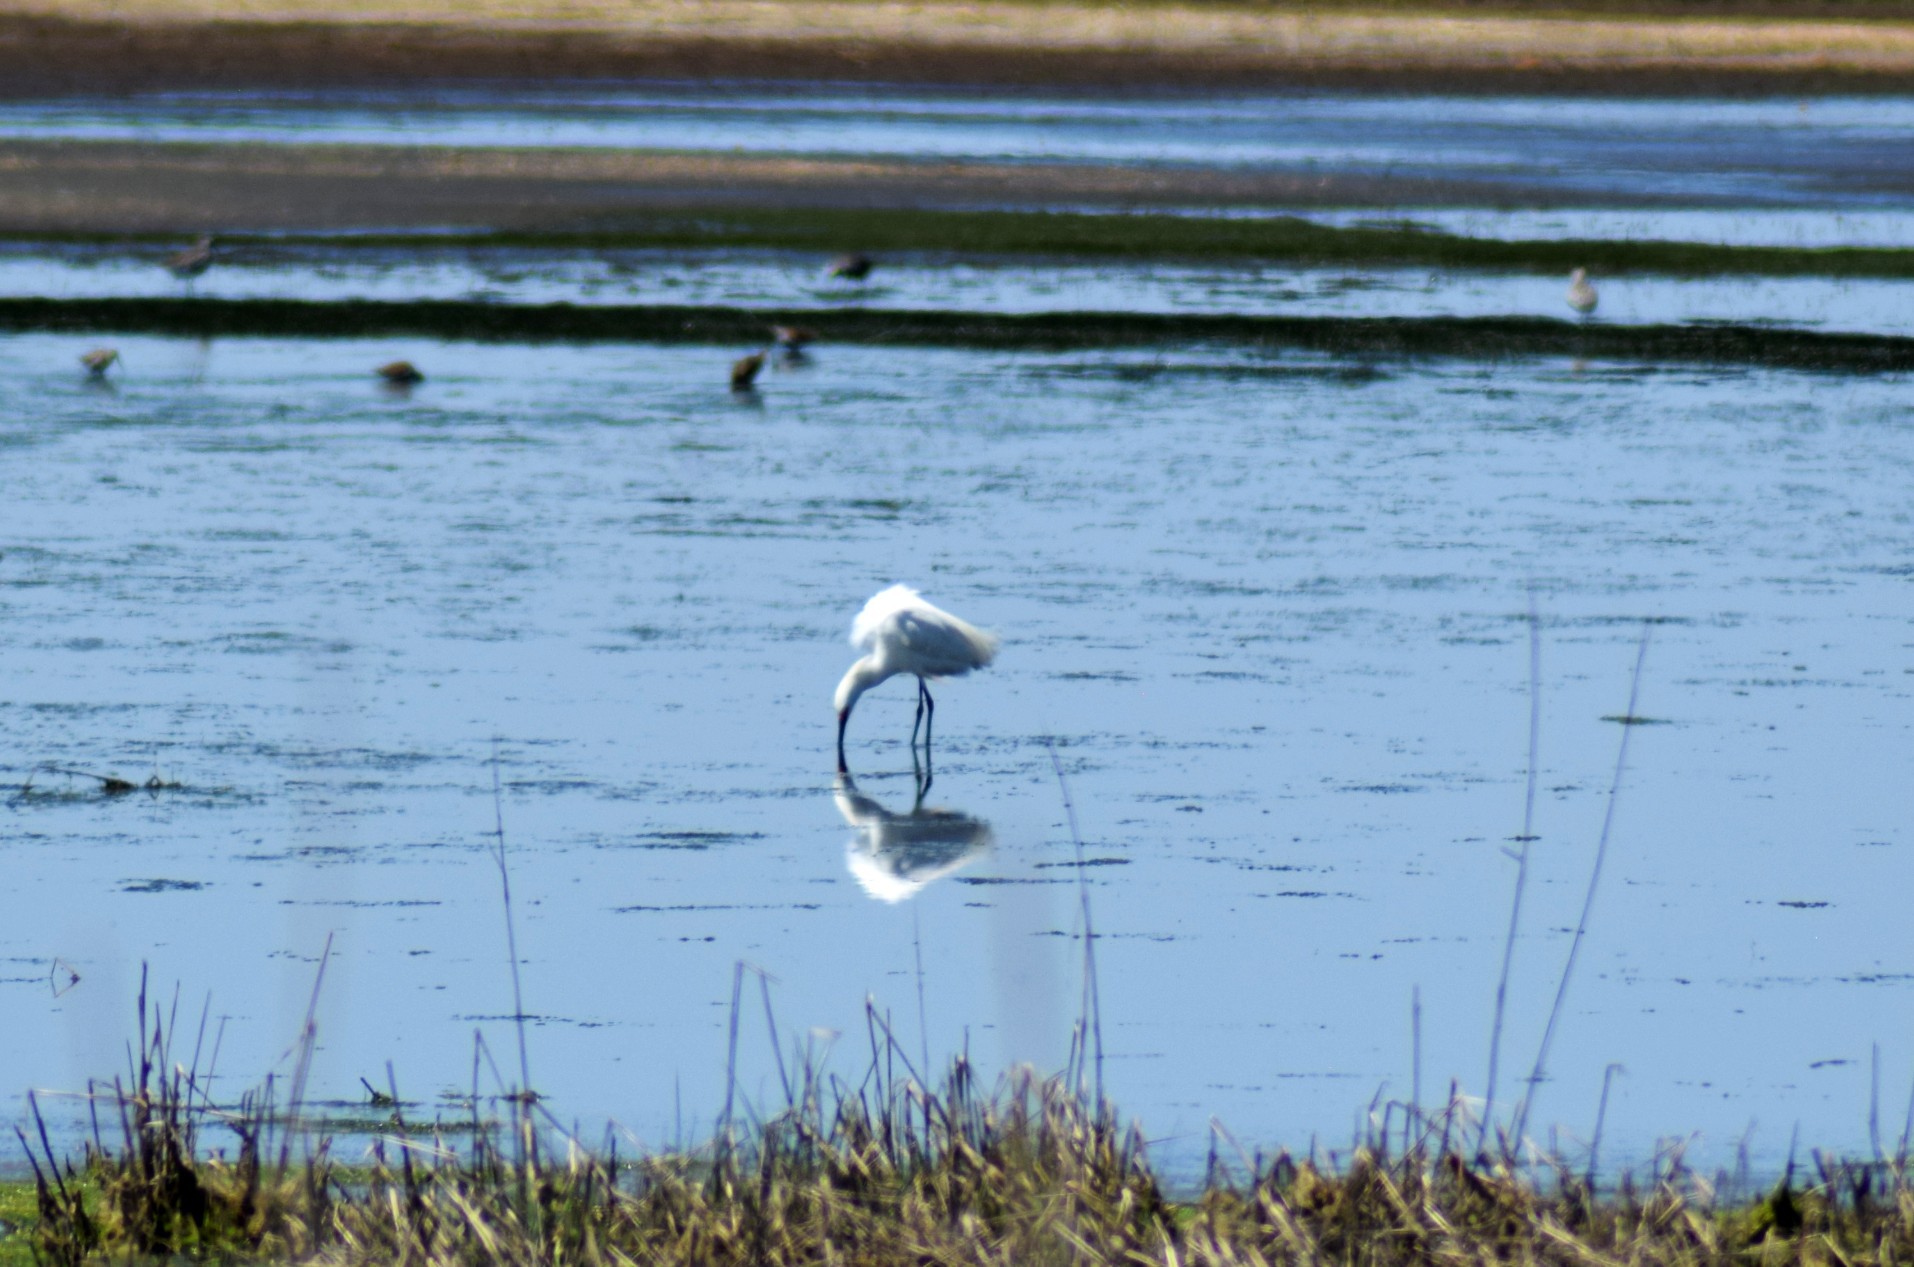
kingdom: Animalia
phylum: Chordata
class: Aves
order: Pelecaniformes
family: Ardeidae
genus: Egretta
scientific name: Egretta thula
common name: Snowy egret
